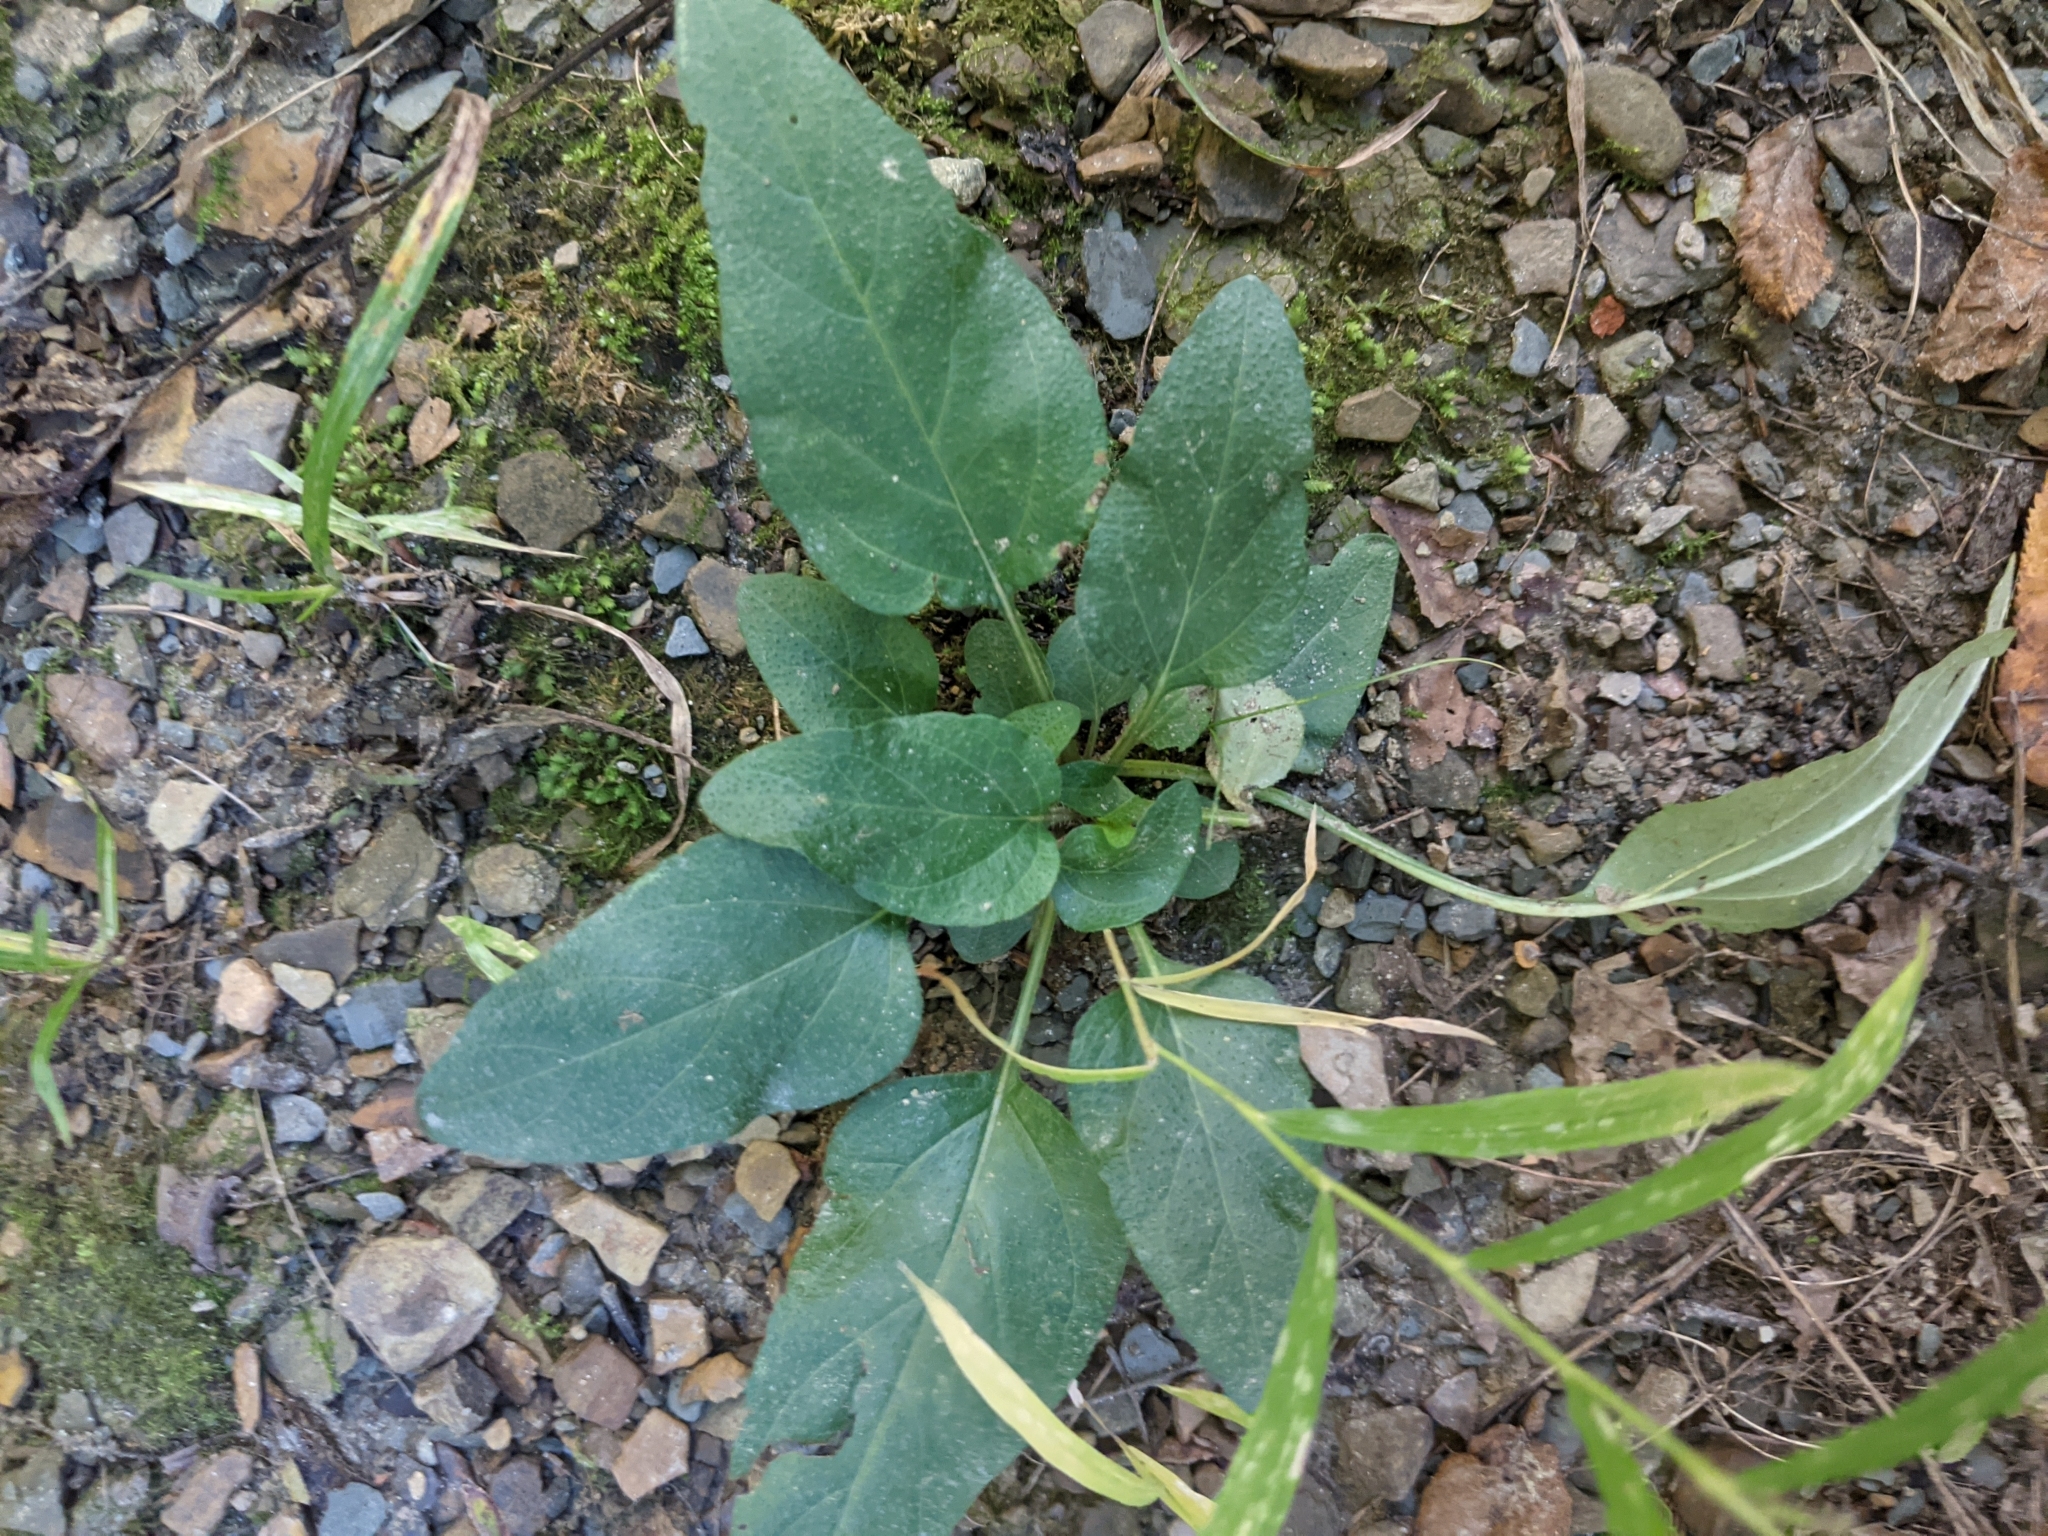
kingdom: Plantae
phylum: Tracheophyta
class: Magnoliopsida
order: Lamiales
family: Lamiaceae
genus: Prunella
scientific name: Prunella vulgaris
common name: Heal-all
